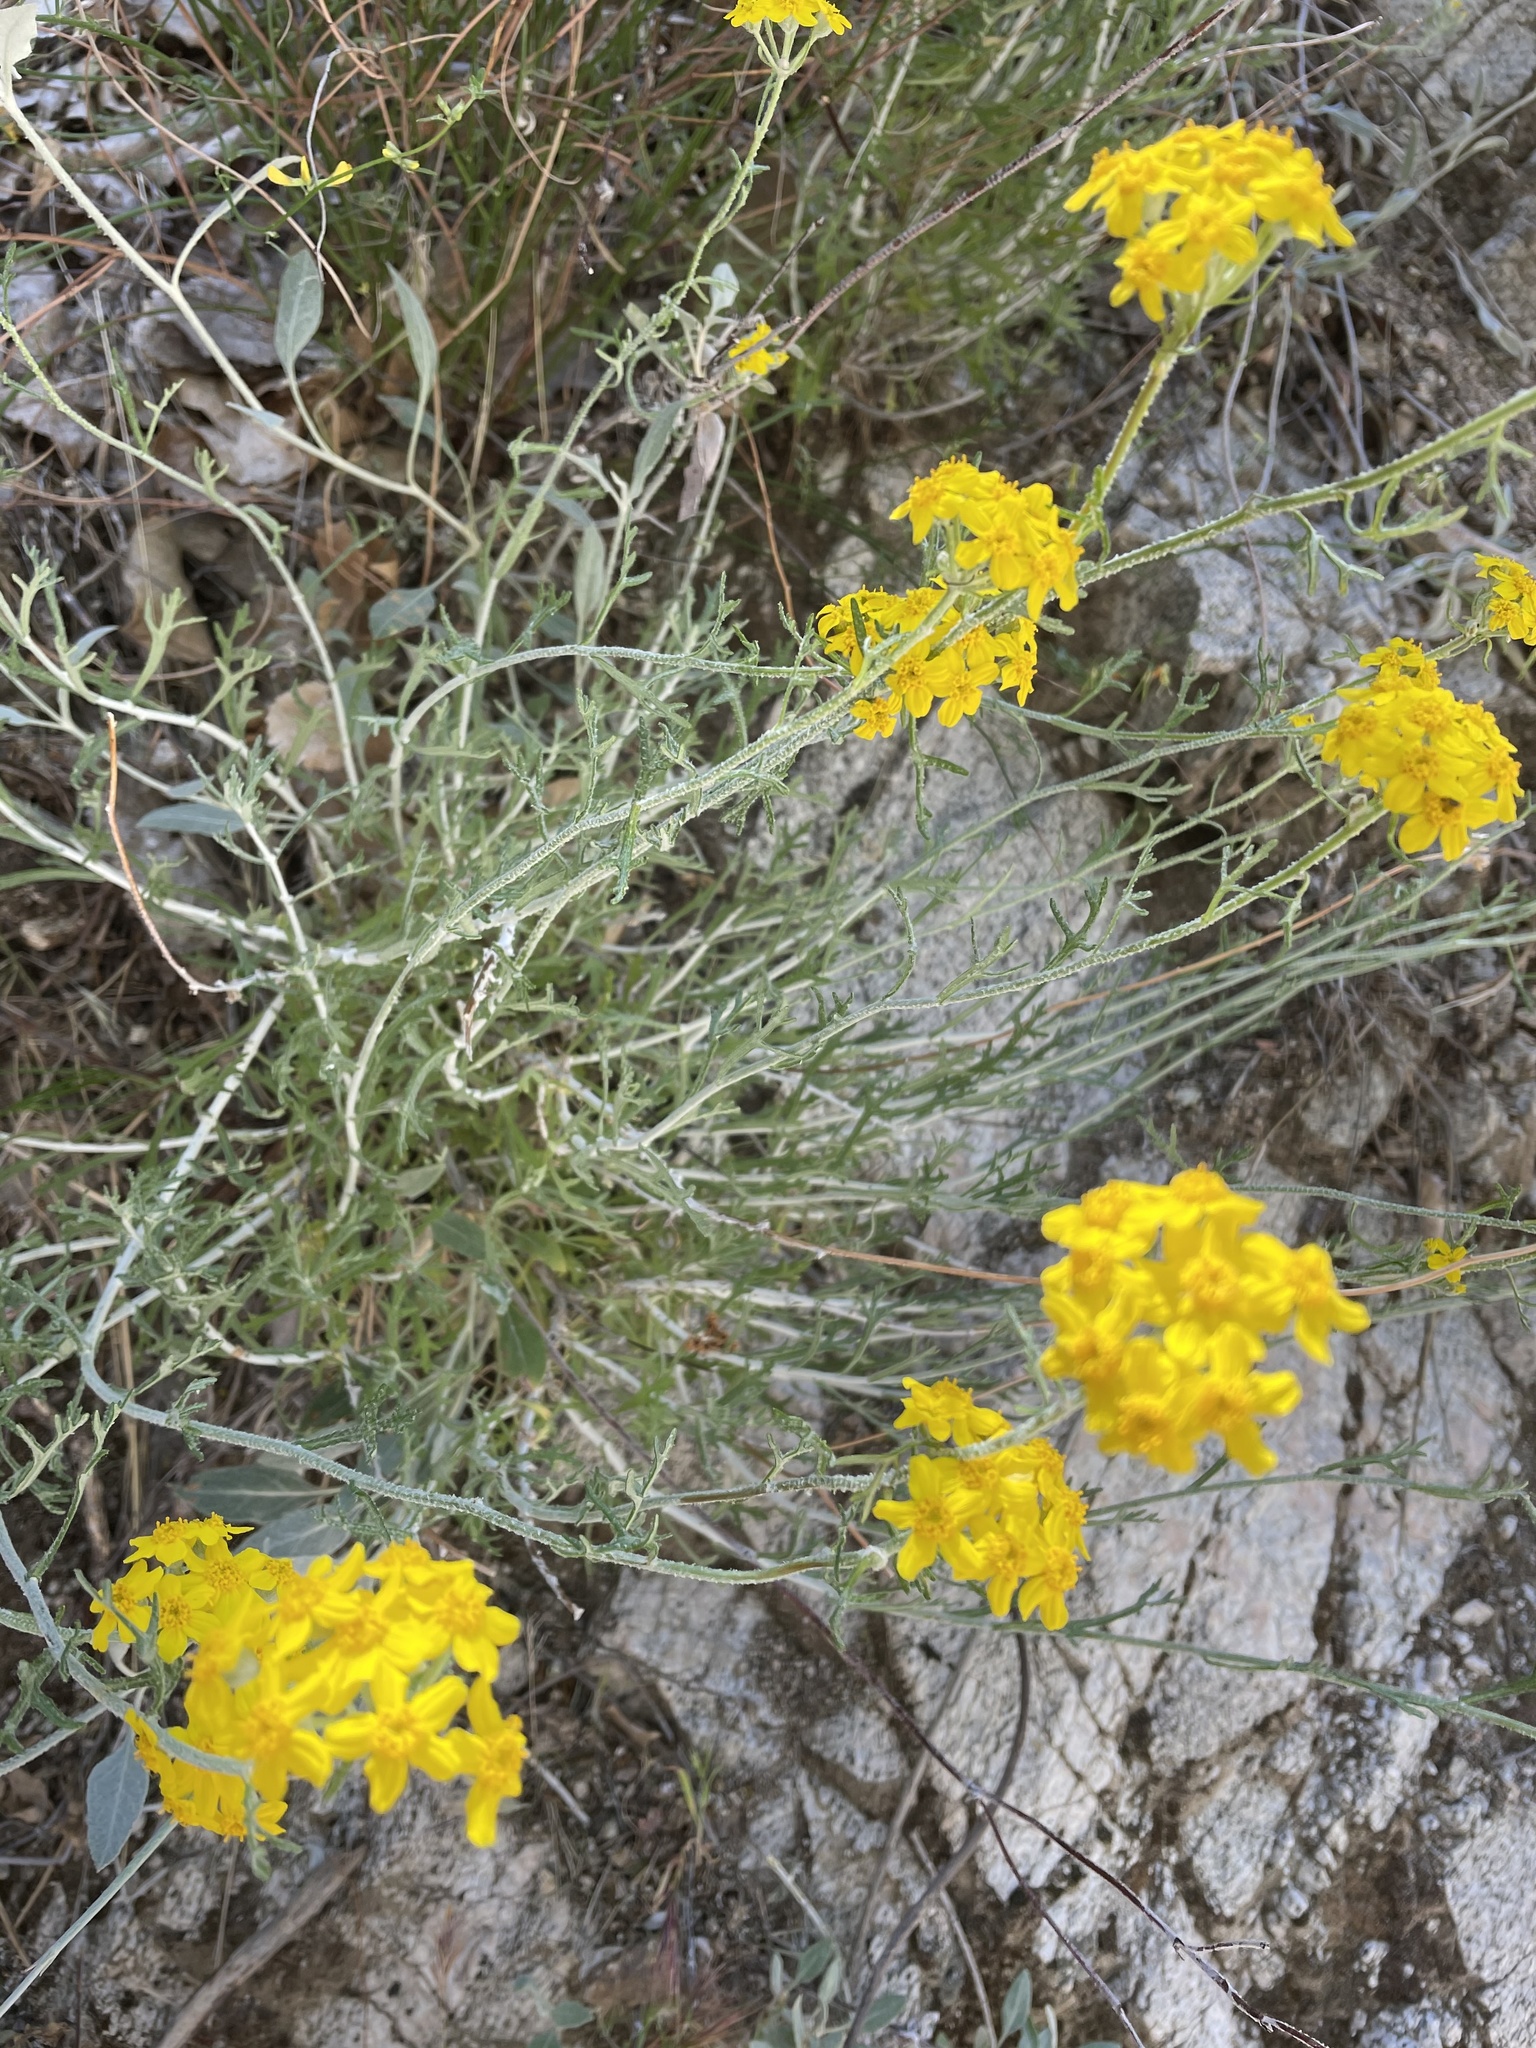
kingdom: Plantae
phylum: Tracheophyta
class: Magnoliopsida
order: Asterales
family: Asteraceae
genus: Eriophyllum
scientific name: Eriophyllum confertiflorum
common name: Golden-yarrow
